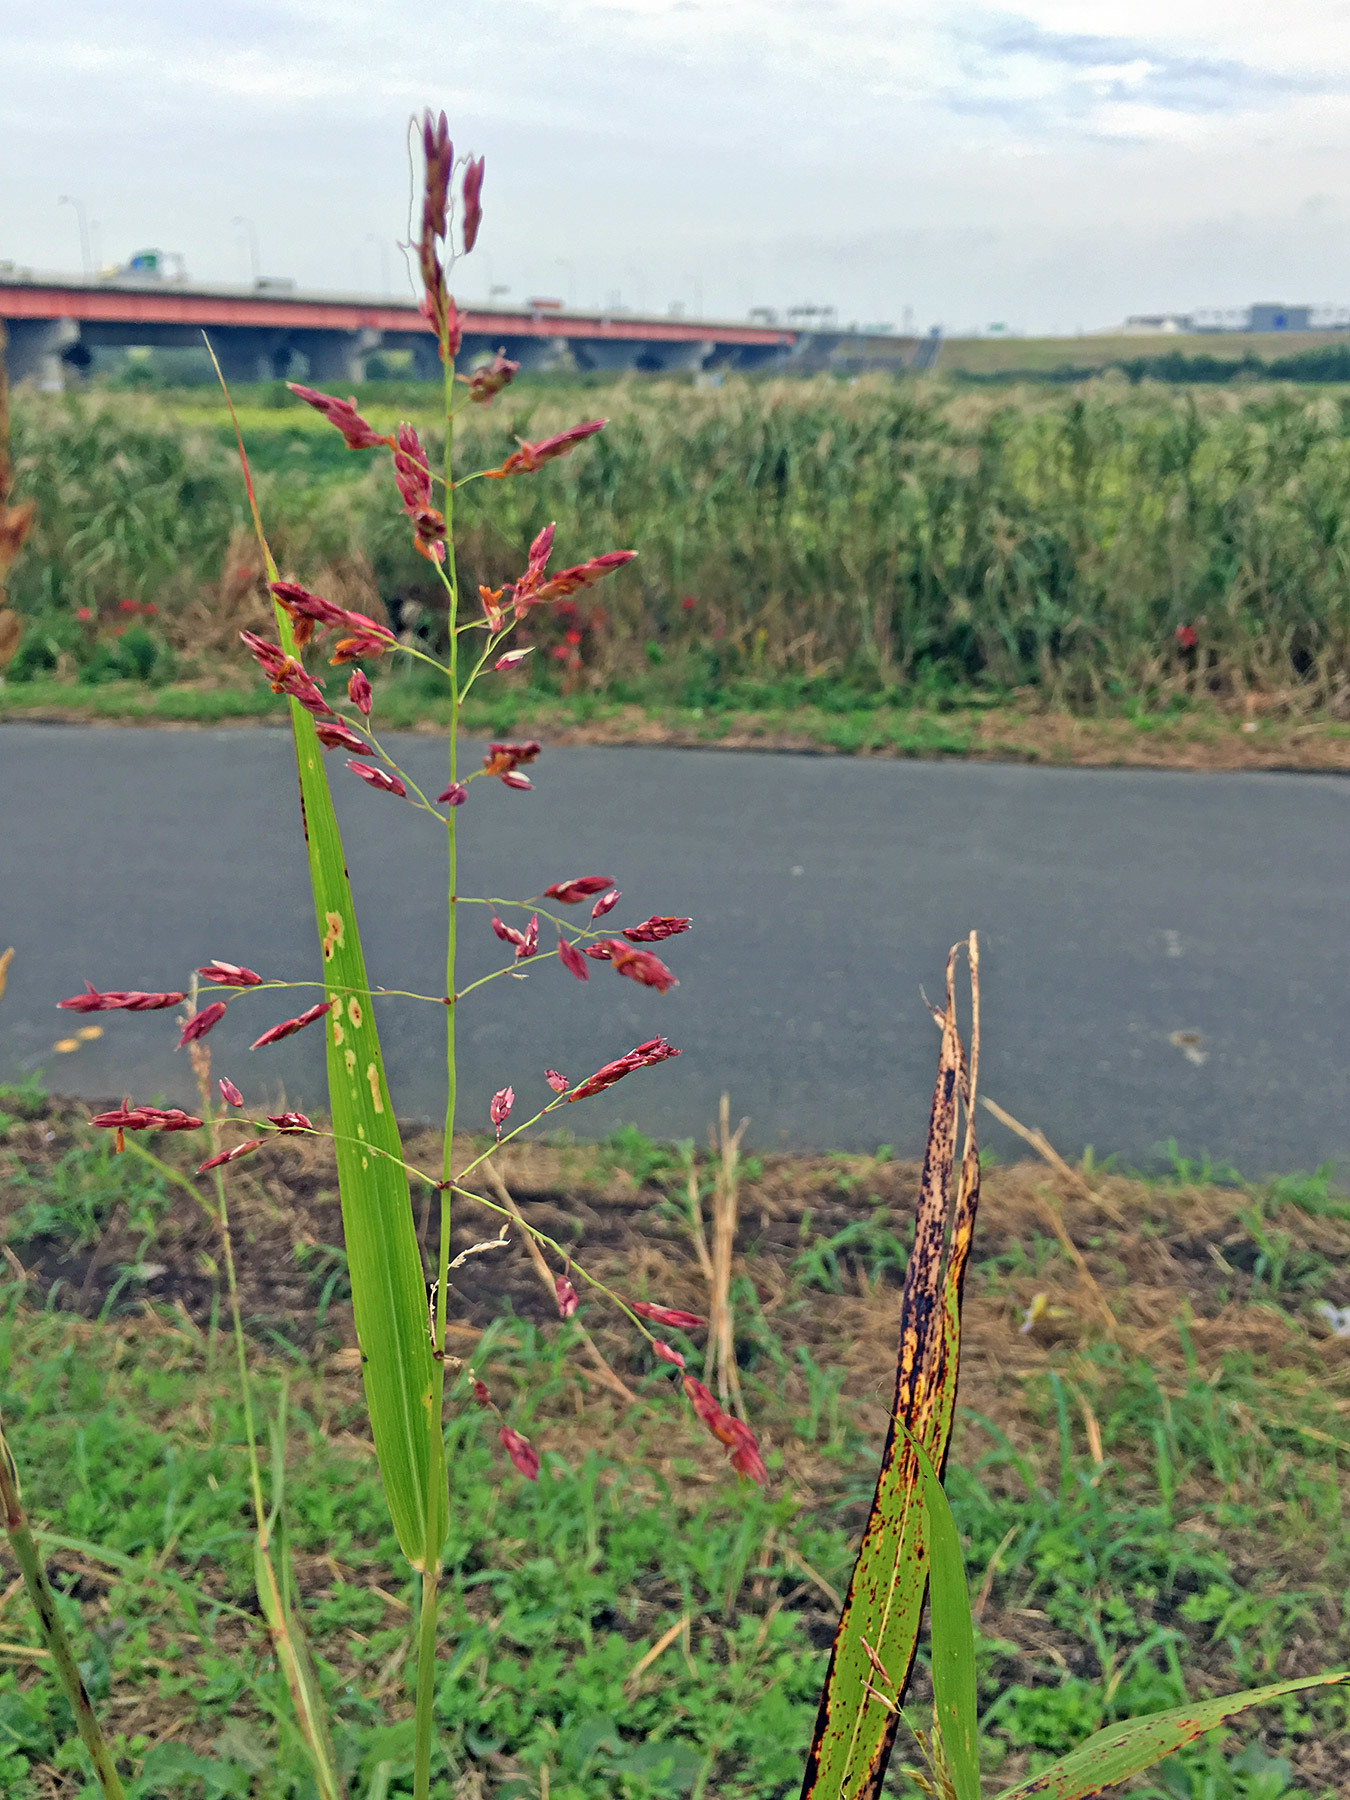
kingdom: Plantae
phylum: Tracheophyta
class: Liliopsida
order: Poales
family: Poaceae
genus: Sorghum
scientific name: Sorghum halepense
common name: Johnson-grass
